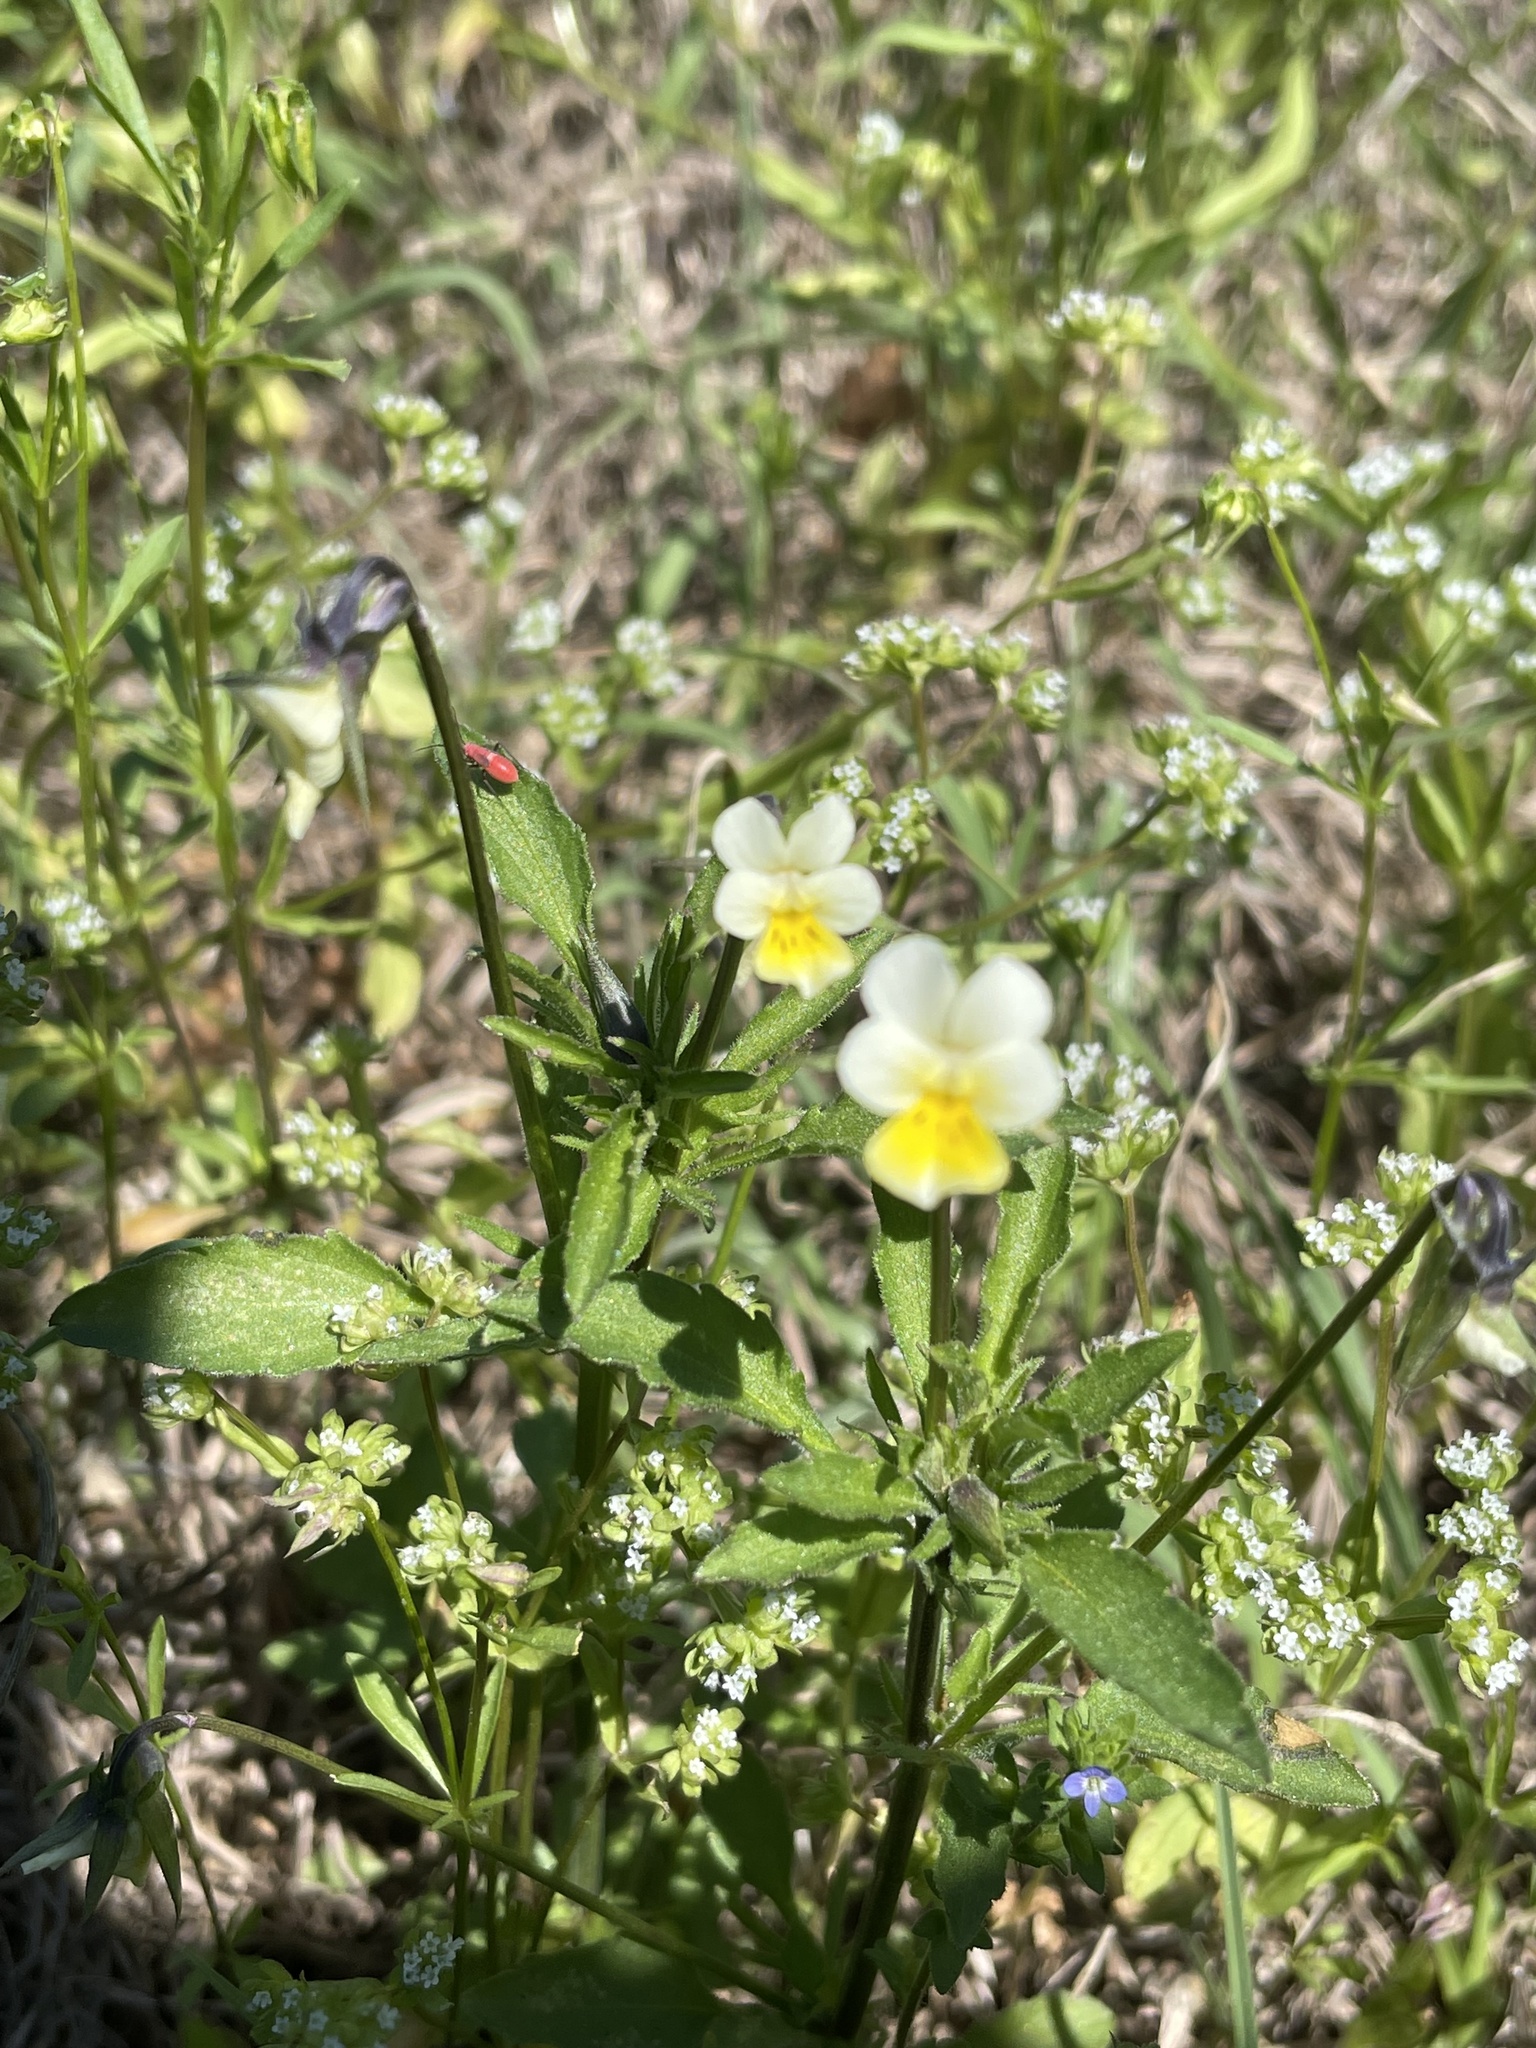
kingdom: Plantae
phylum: Tracheophyta
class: Magnoliopsida
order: Malpighiales
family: Violaceae
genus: Viola
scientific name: Viola arvensis
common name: Field pansy
